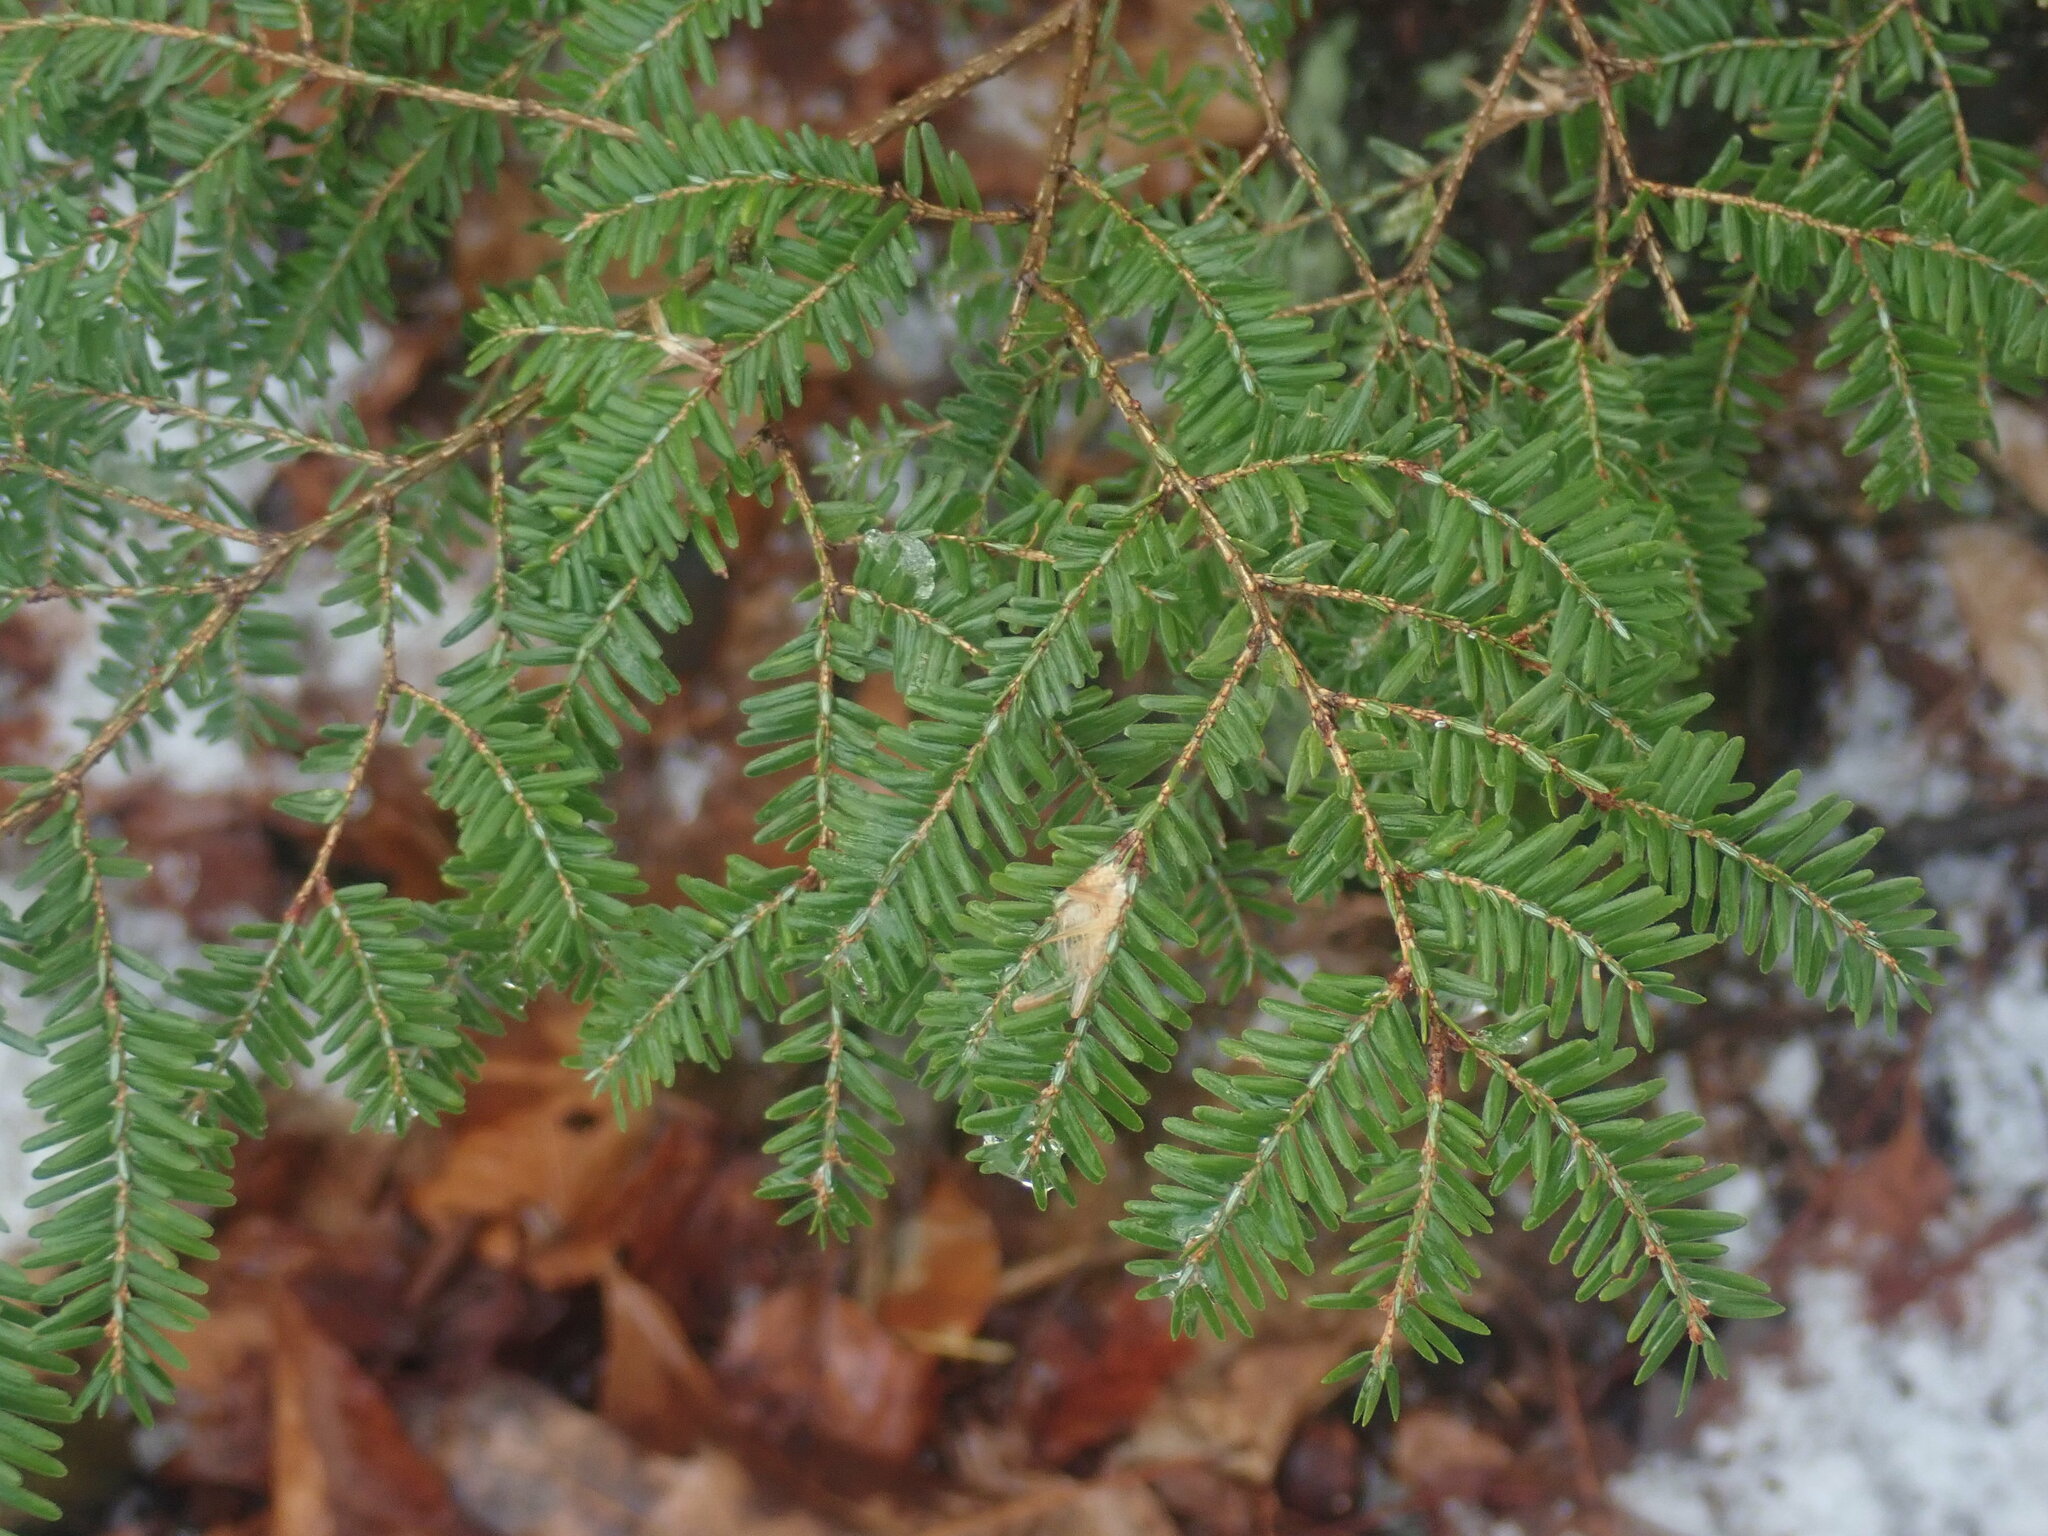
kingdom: Plantae
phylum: Tracheophyta
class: Pinopsida
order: Pinales
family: Pinaceae
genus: Tsuga
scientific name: Tsuga canadensis
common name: Eastern hemlock
